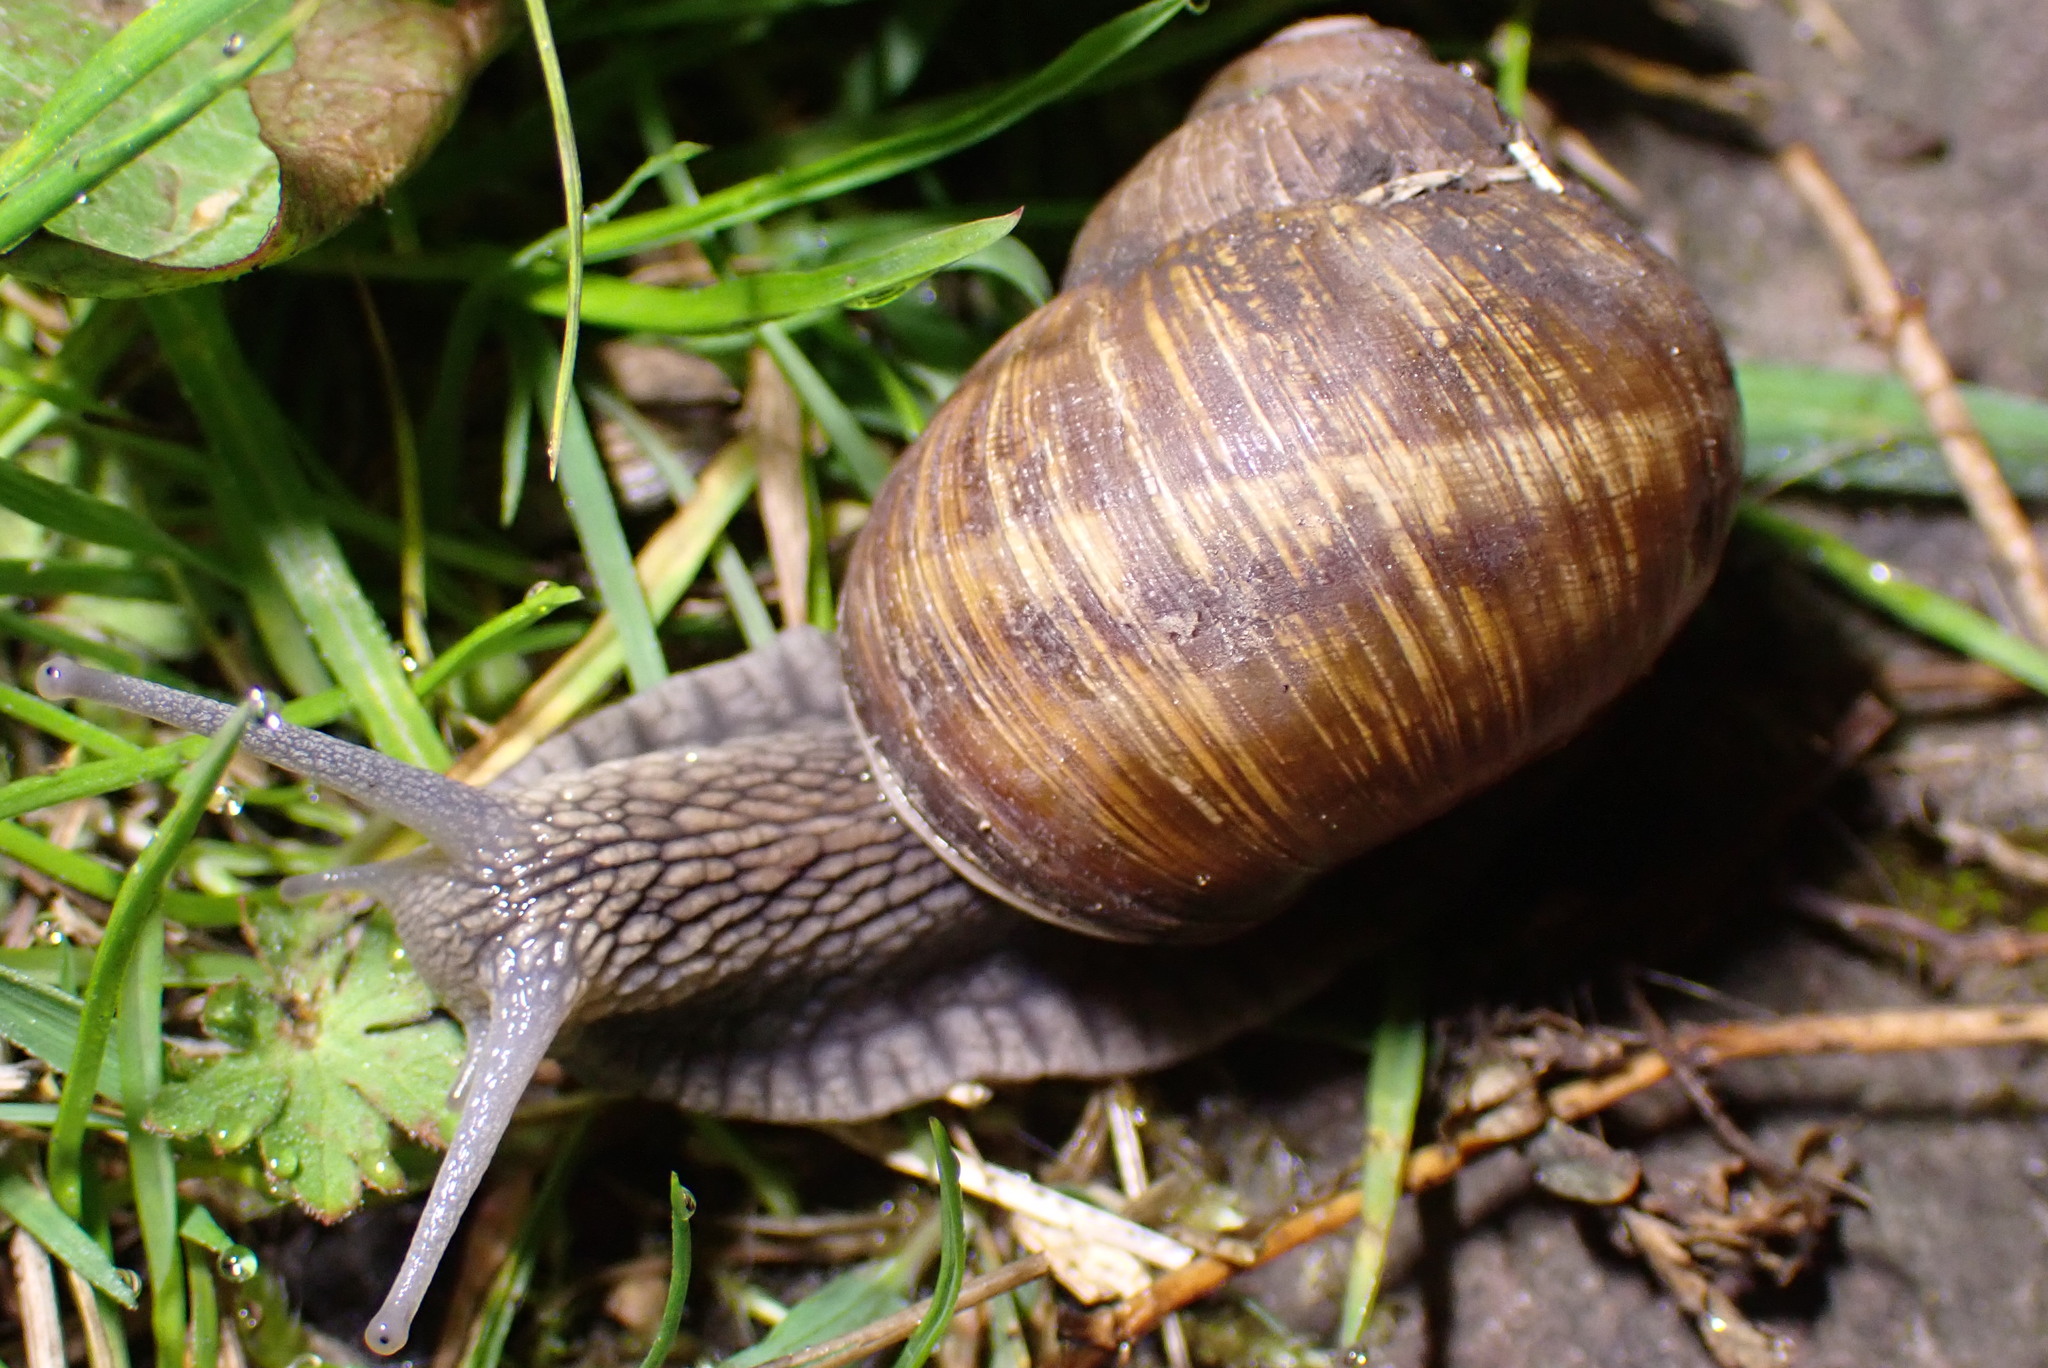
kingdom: Animalia
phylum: Mollusca
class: Gastropoda
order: Stylommatophora
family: Helicidae
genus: Helix
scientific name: Helix pomatia
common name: Roman snail
